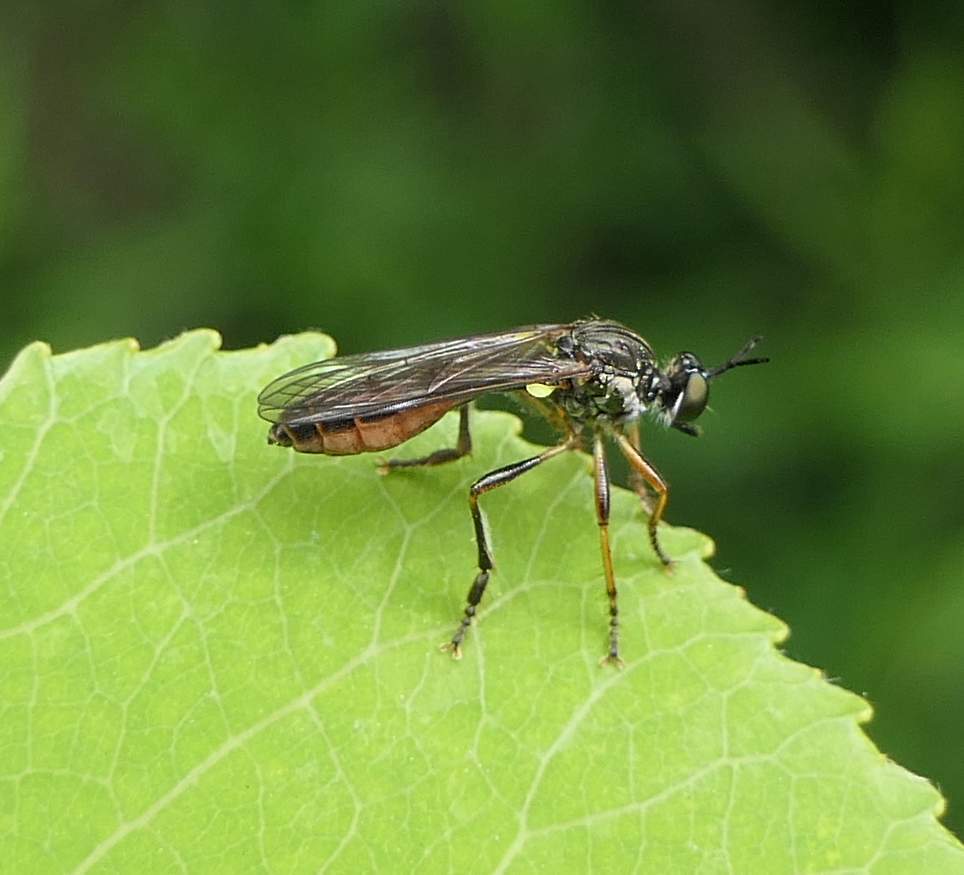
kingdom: Animalia
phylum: Arthropoda
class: Insecta
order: Diptera
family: Asilidae
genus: Dioctria
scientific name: Dioctria hyalipennis
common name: Stripe-legged robberfly
